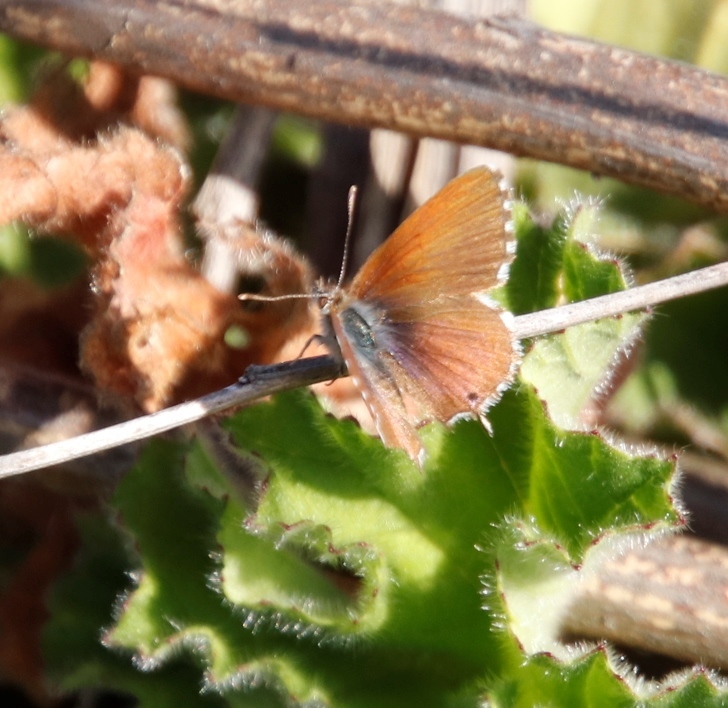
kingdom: Animalia
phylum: Arthropoda
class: Insecta
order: Lepidoptera
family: Lycaenidae
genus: Cacyreus
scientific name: Cacyreus fracta
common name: Water bronze
